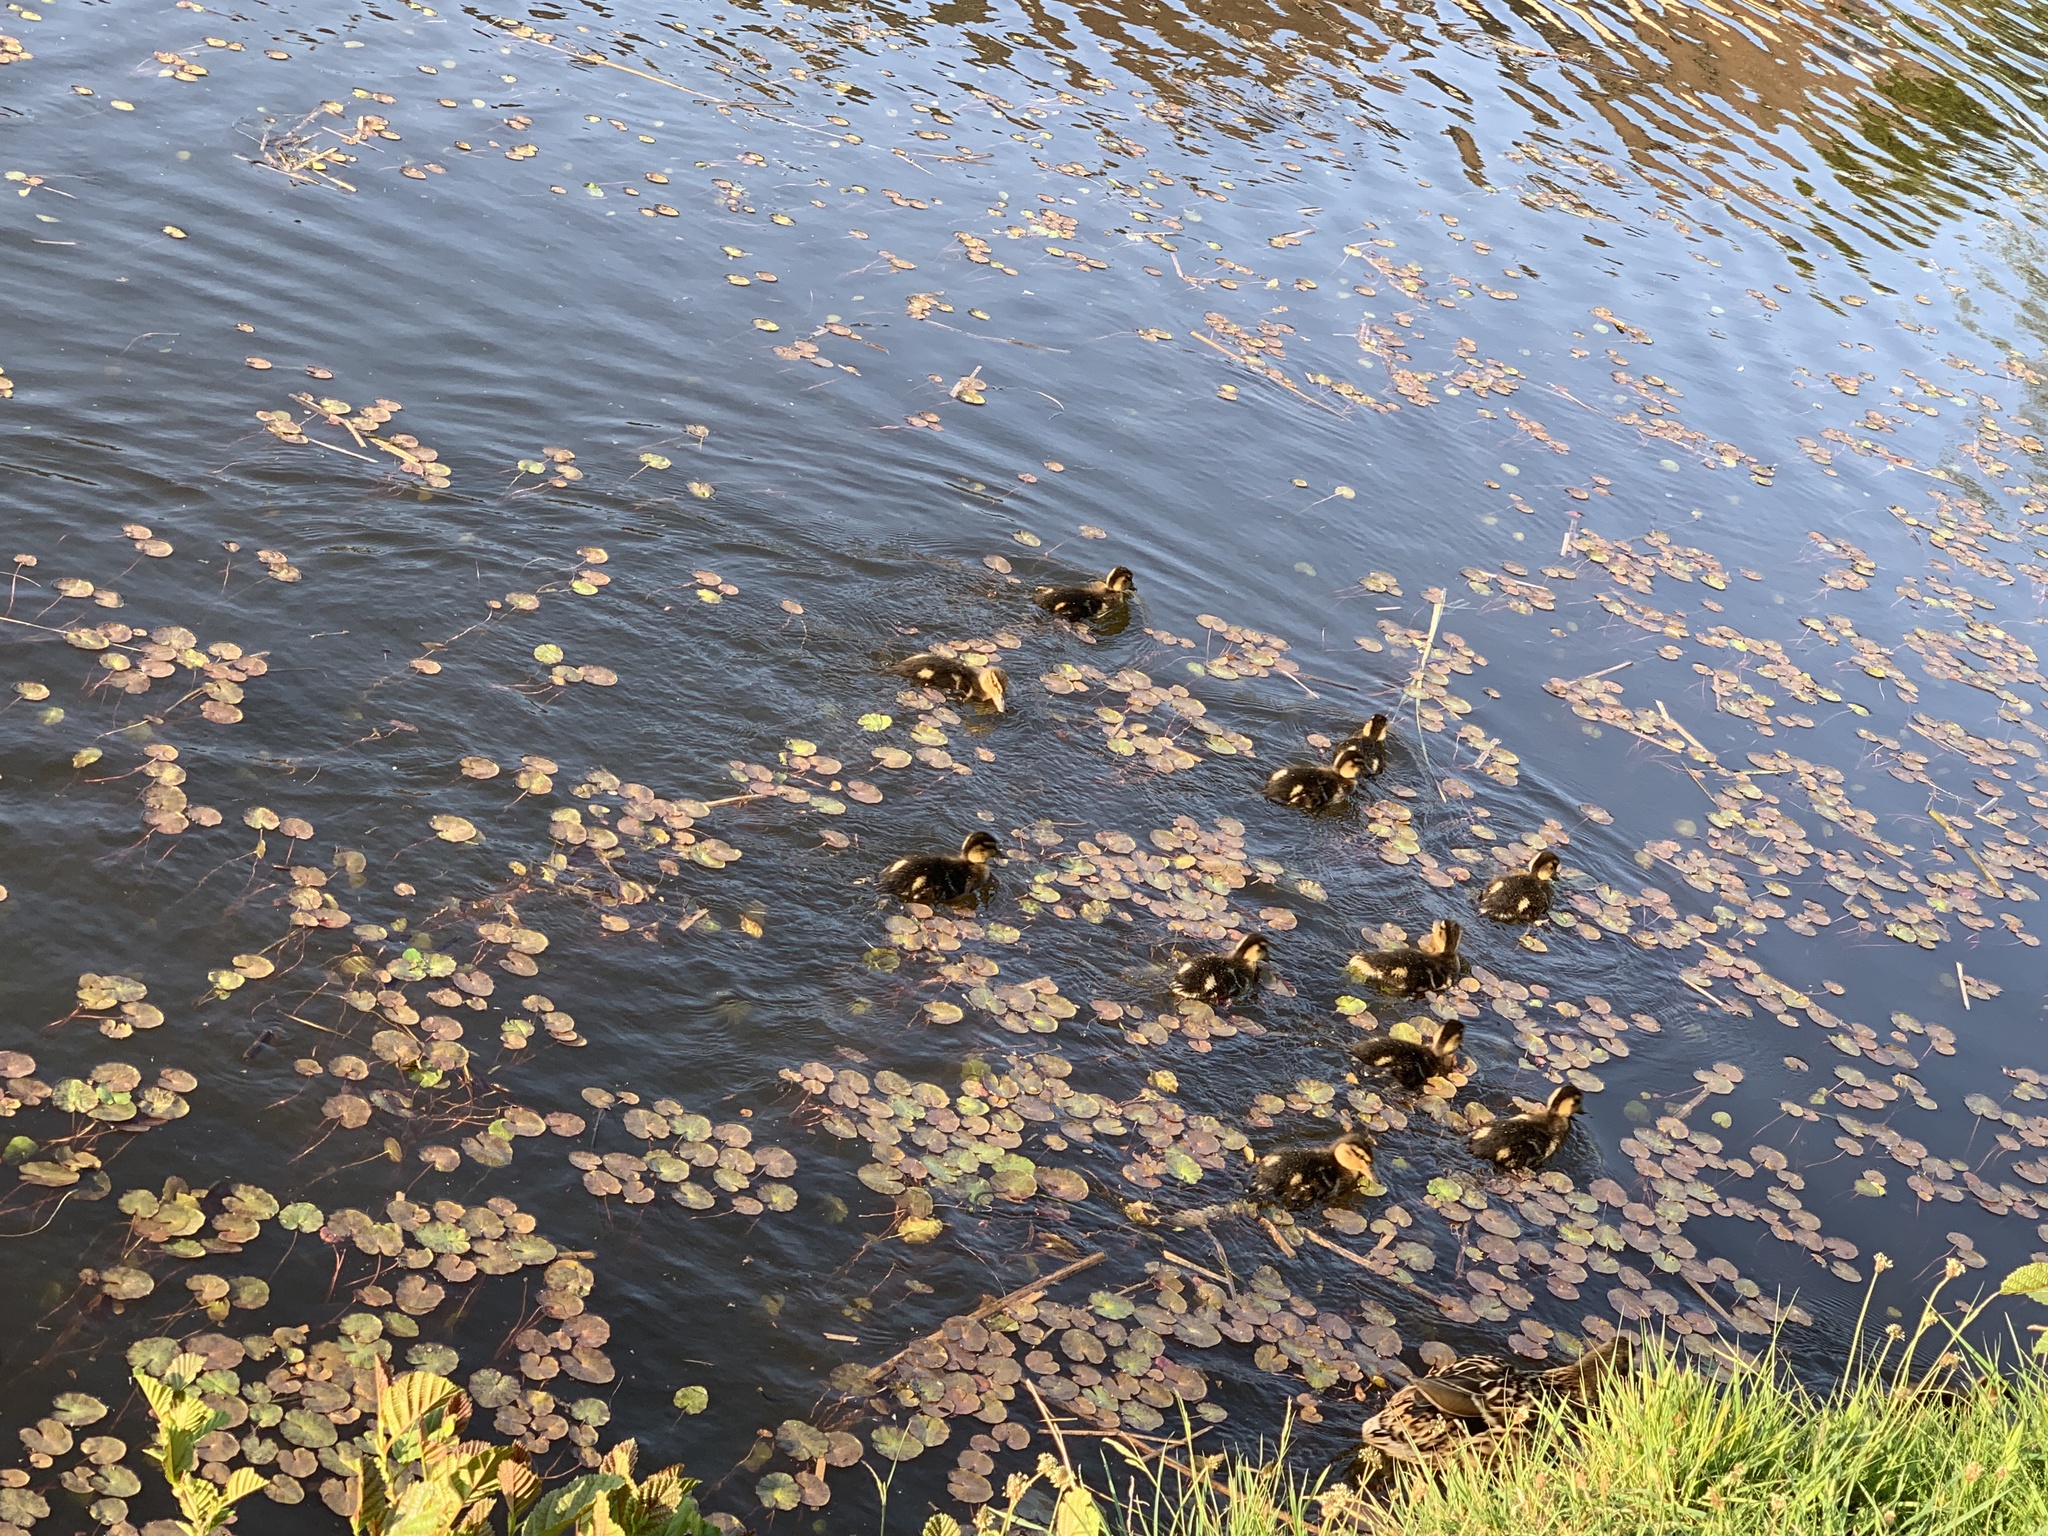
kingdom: Animalia
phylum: Chordata
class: Aves
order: Anseriformes
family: Anatidae
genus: Anas
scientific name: Anas platyrhynchos
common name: Mallard
